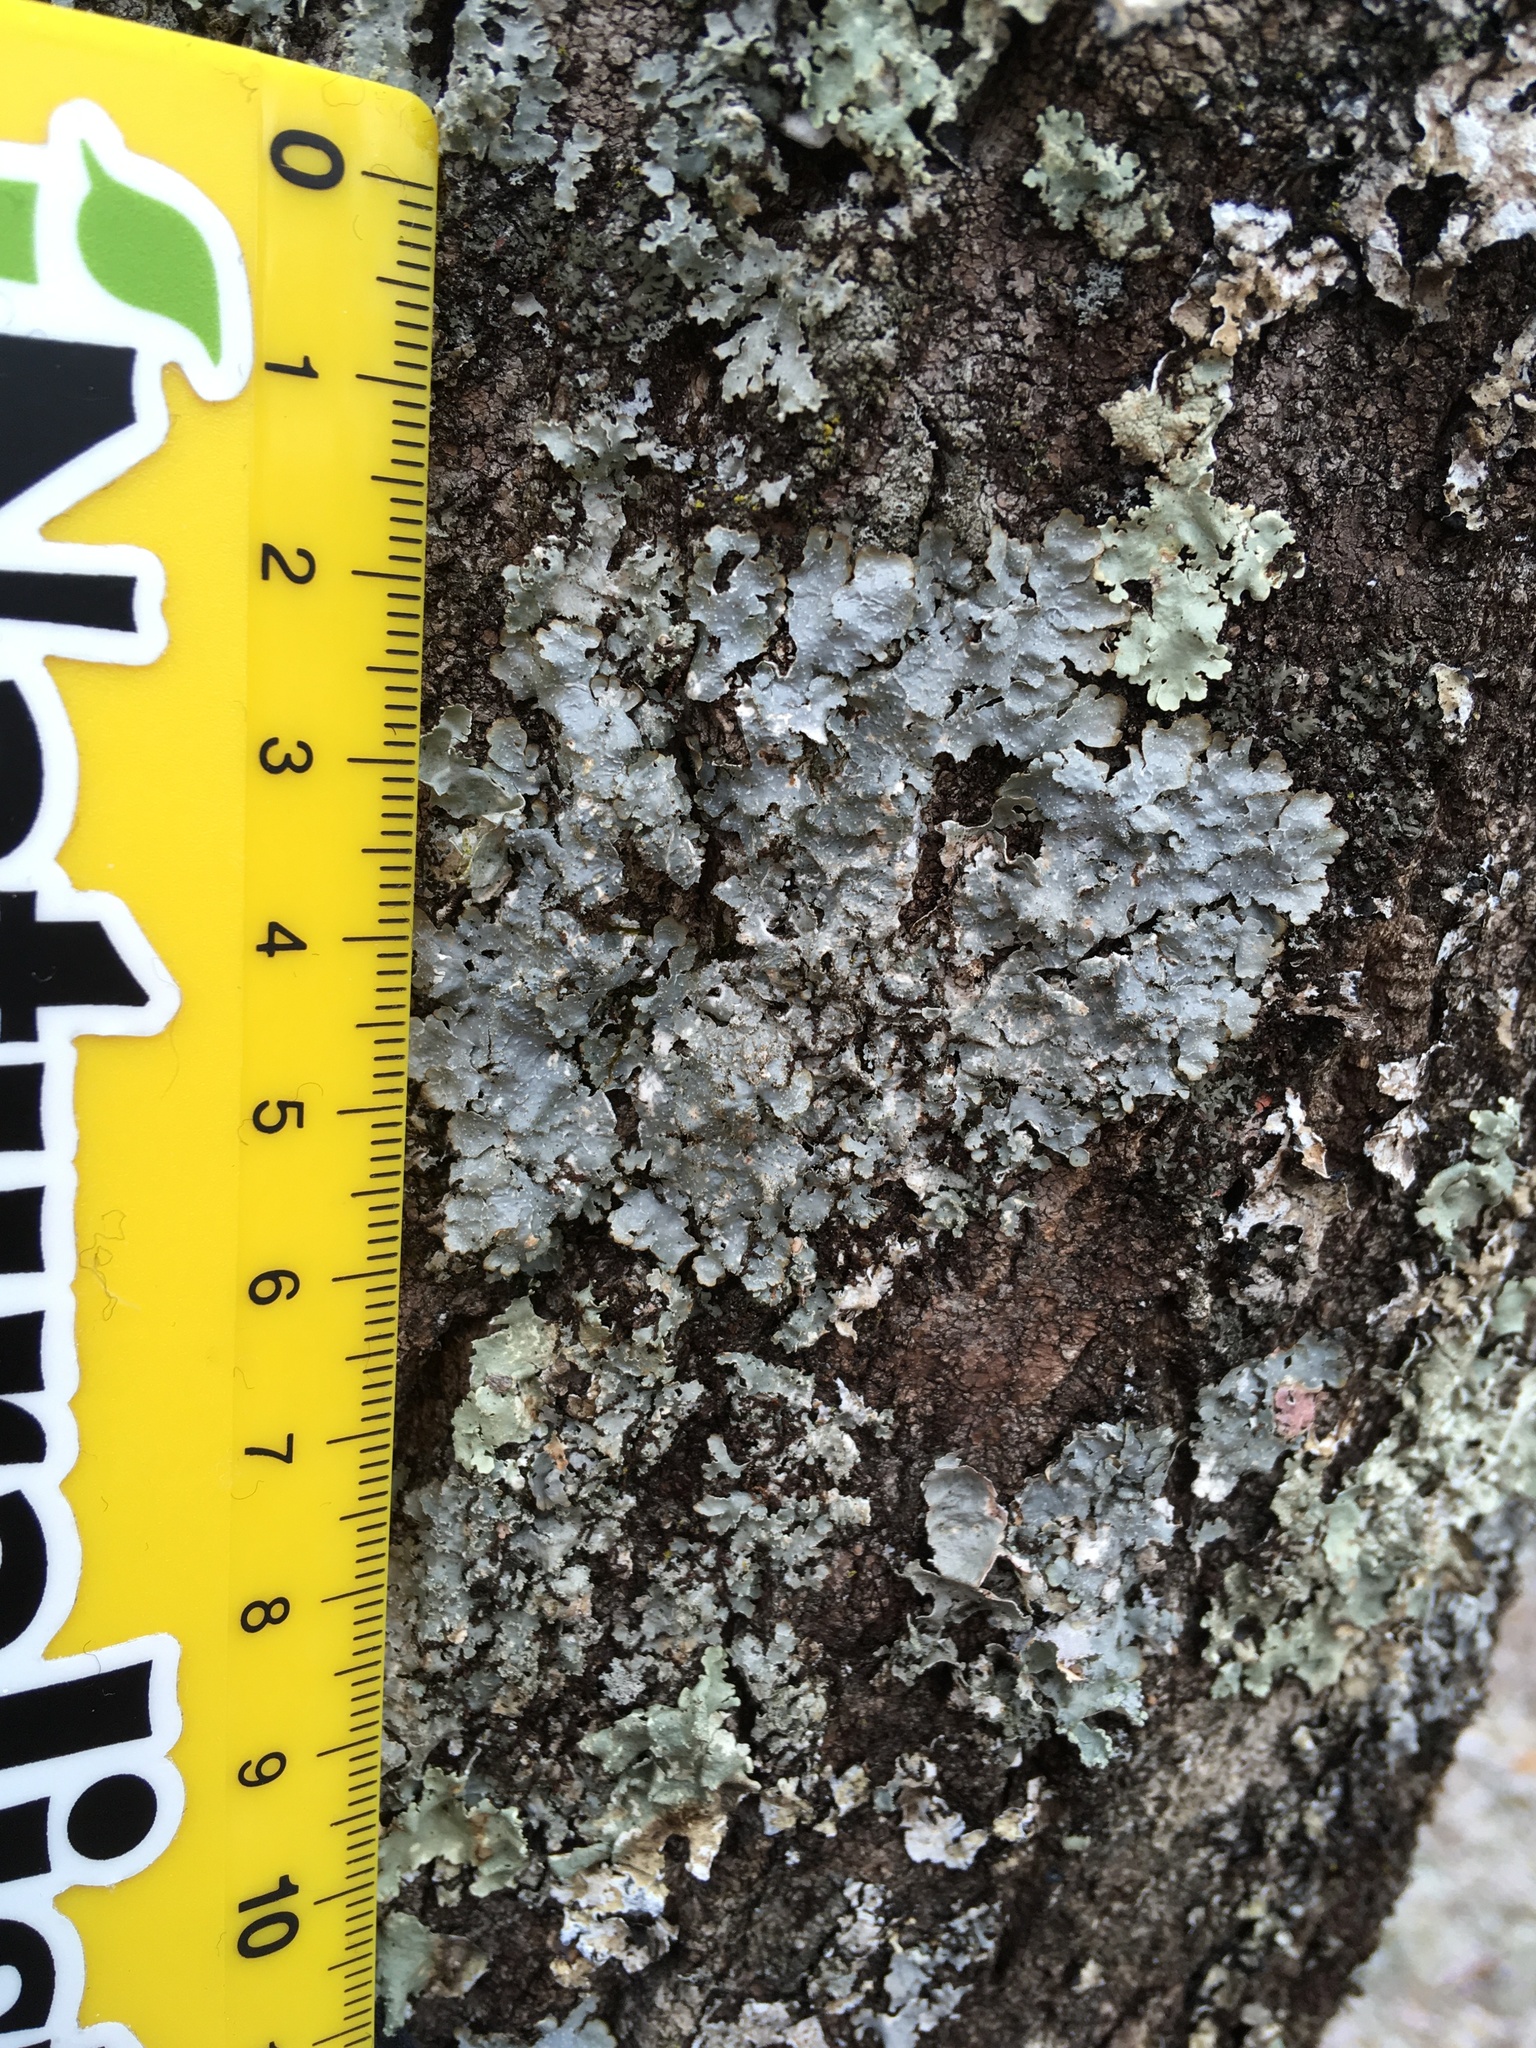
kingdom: Fungi
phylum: Ascomycota
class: Lecanoromycetes
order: Lecanorales
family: Parmeliaceae
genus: Punctelia
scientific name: Punctelia rudecta
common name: Rough speckled shield lichen
